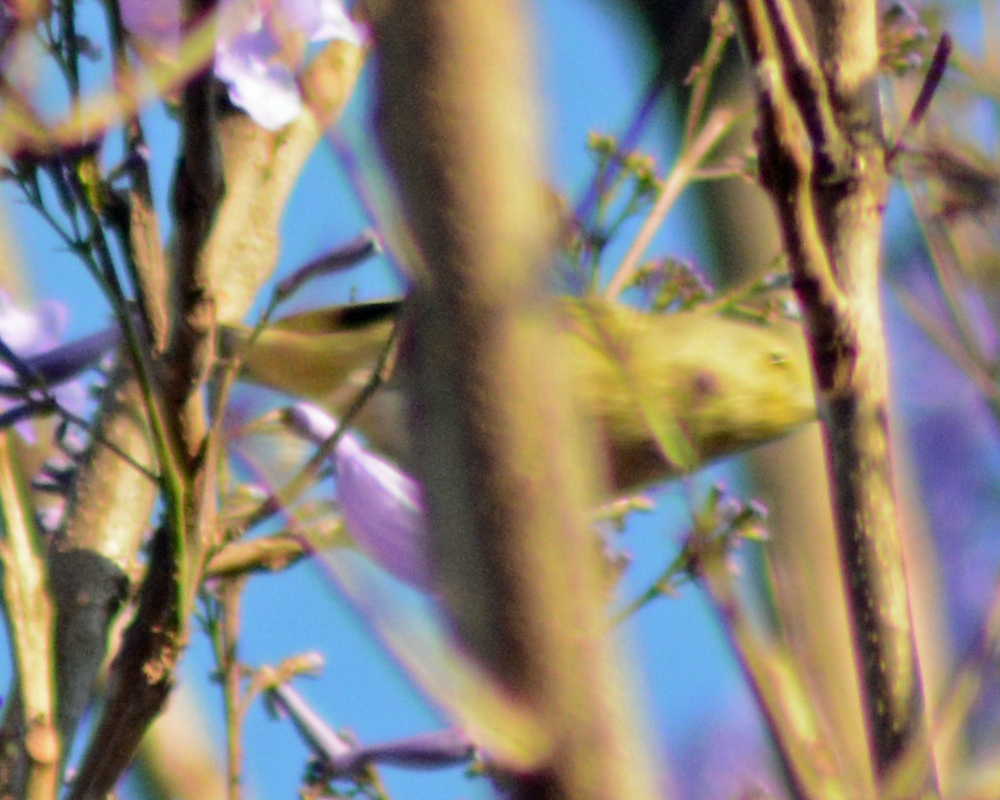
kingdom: Animalia
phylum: Chordata
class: Aves
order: Passeriformes
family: Parulidae
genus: Setophaga
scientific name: Setophaga petechia
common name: Yellow warbler
